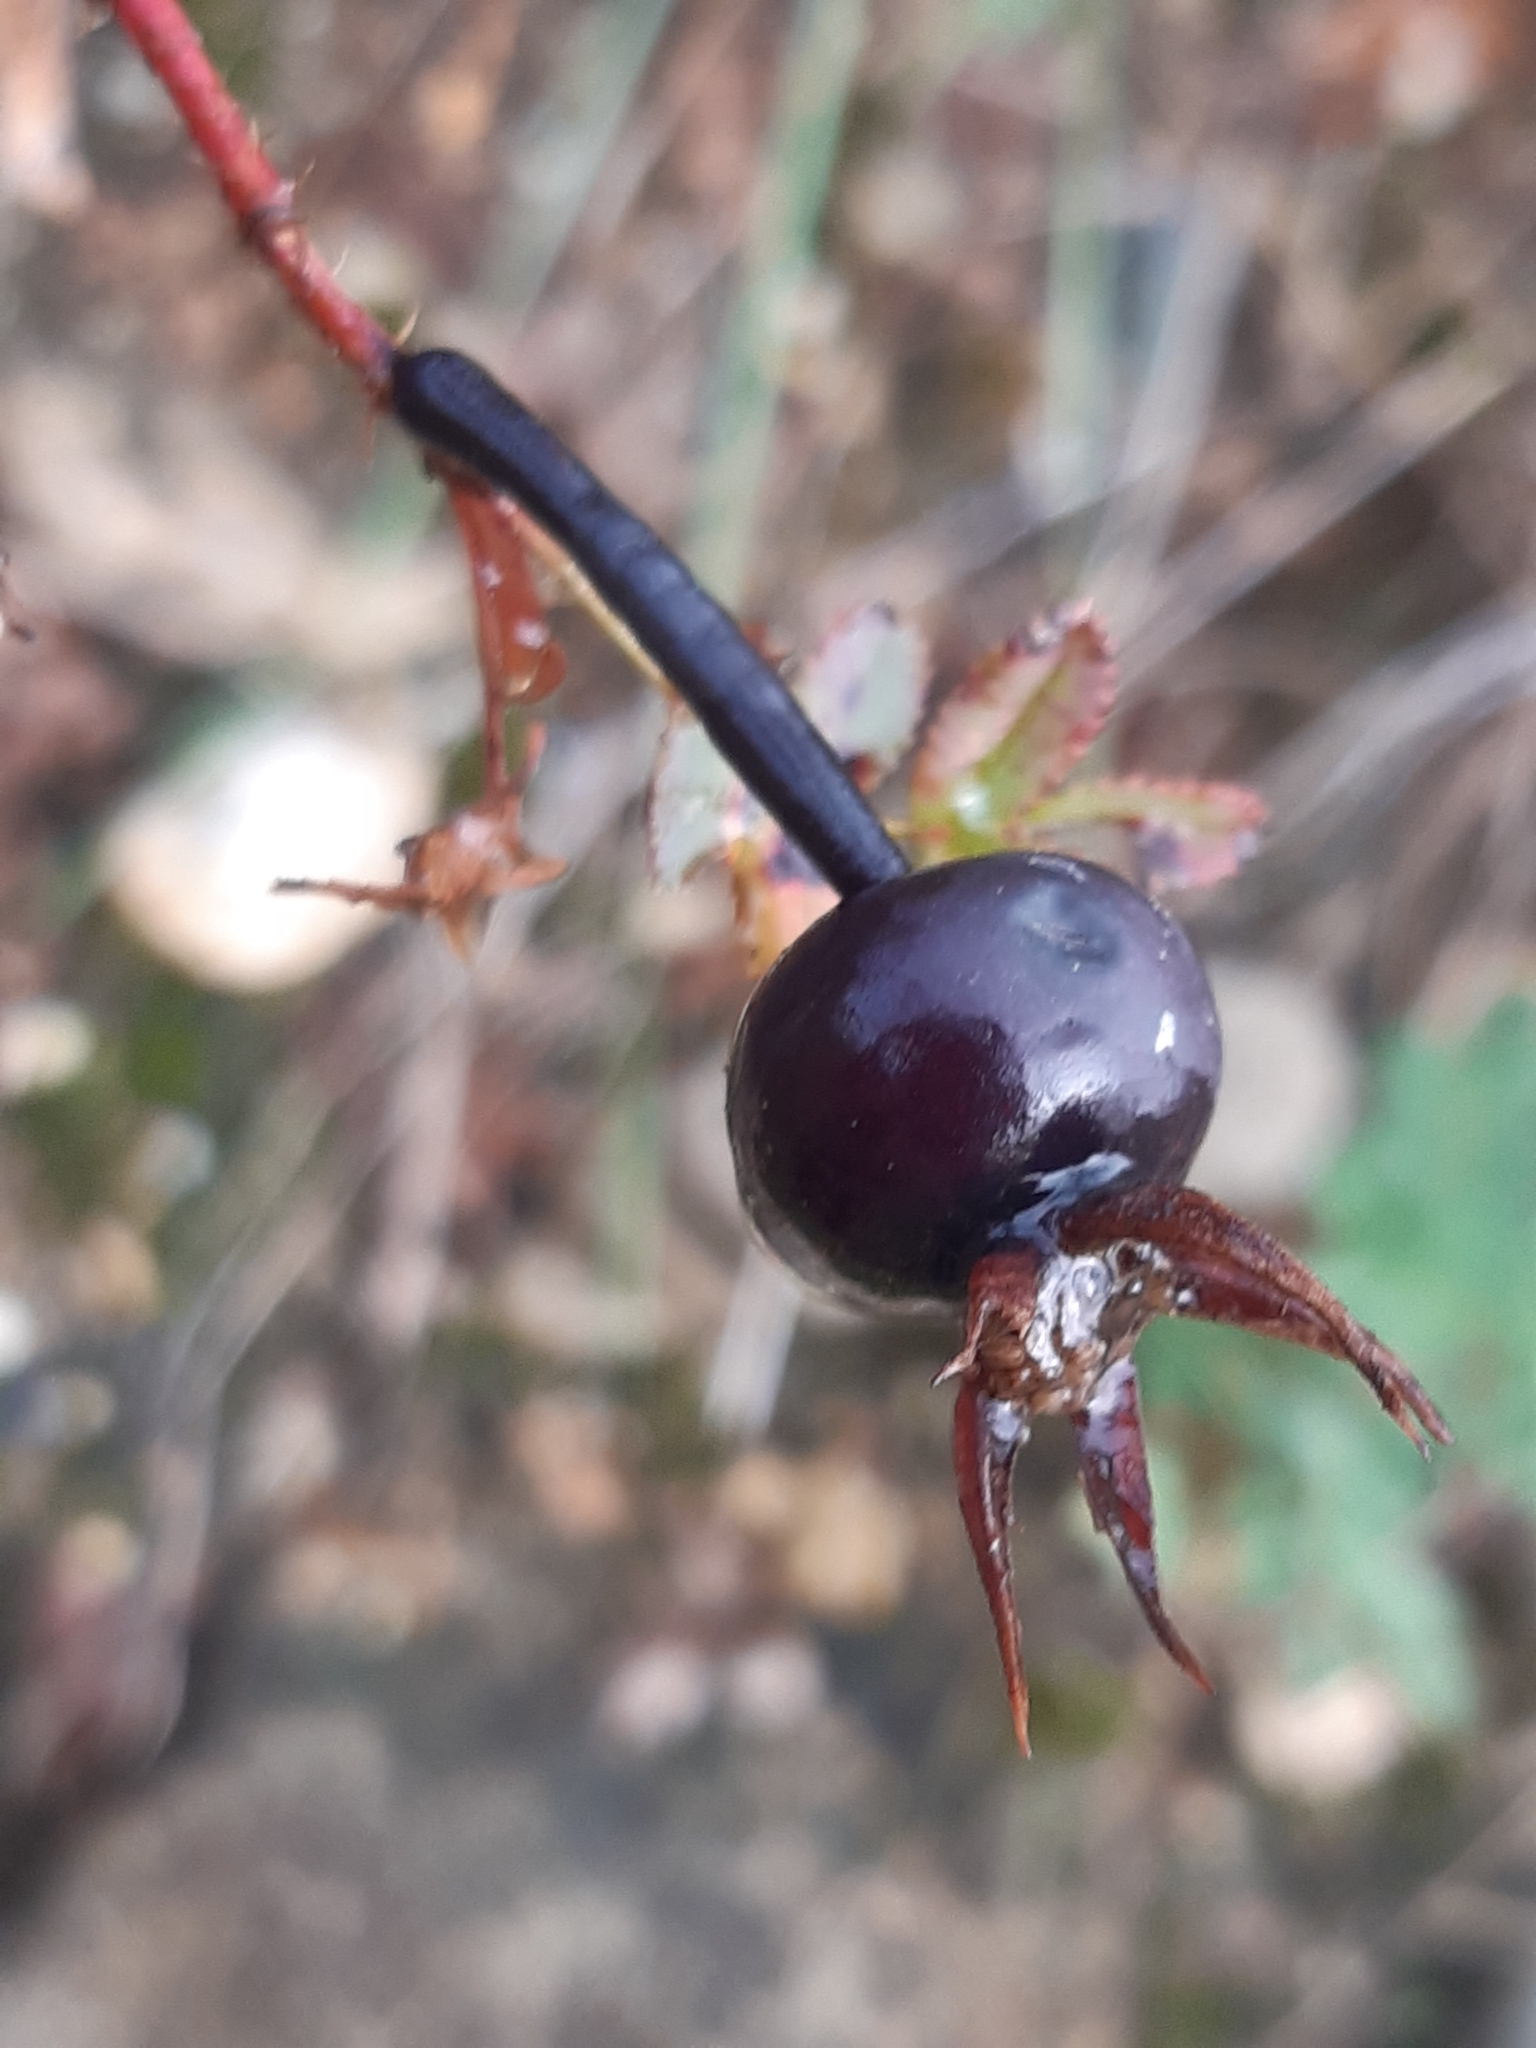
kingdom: Plantae
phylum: Tracheophyta
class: Magnoliopsida
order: Rosales
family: Rosaceae
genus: Rosa
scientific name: Rosa spinosissima
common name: Burnet rose
